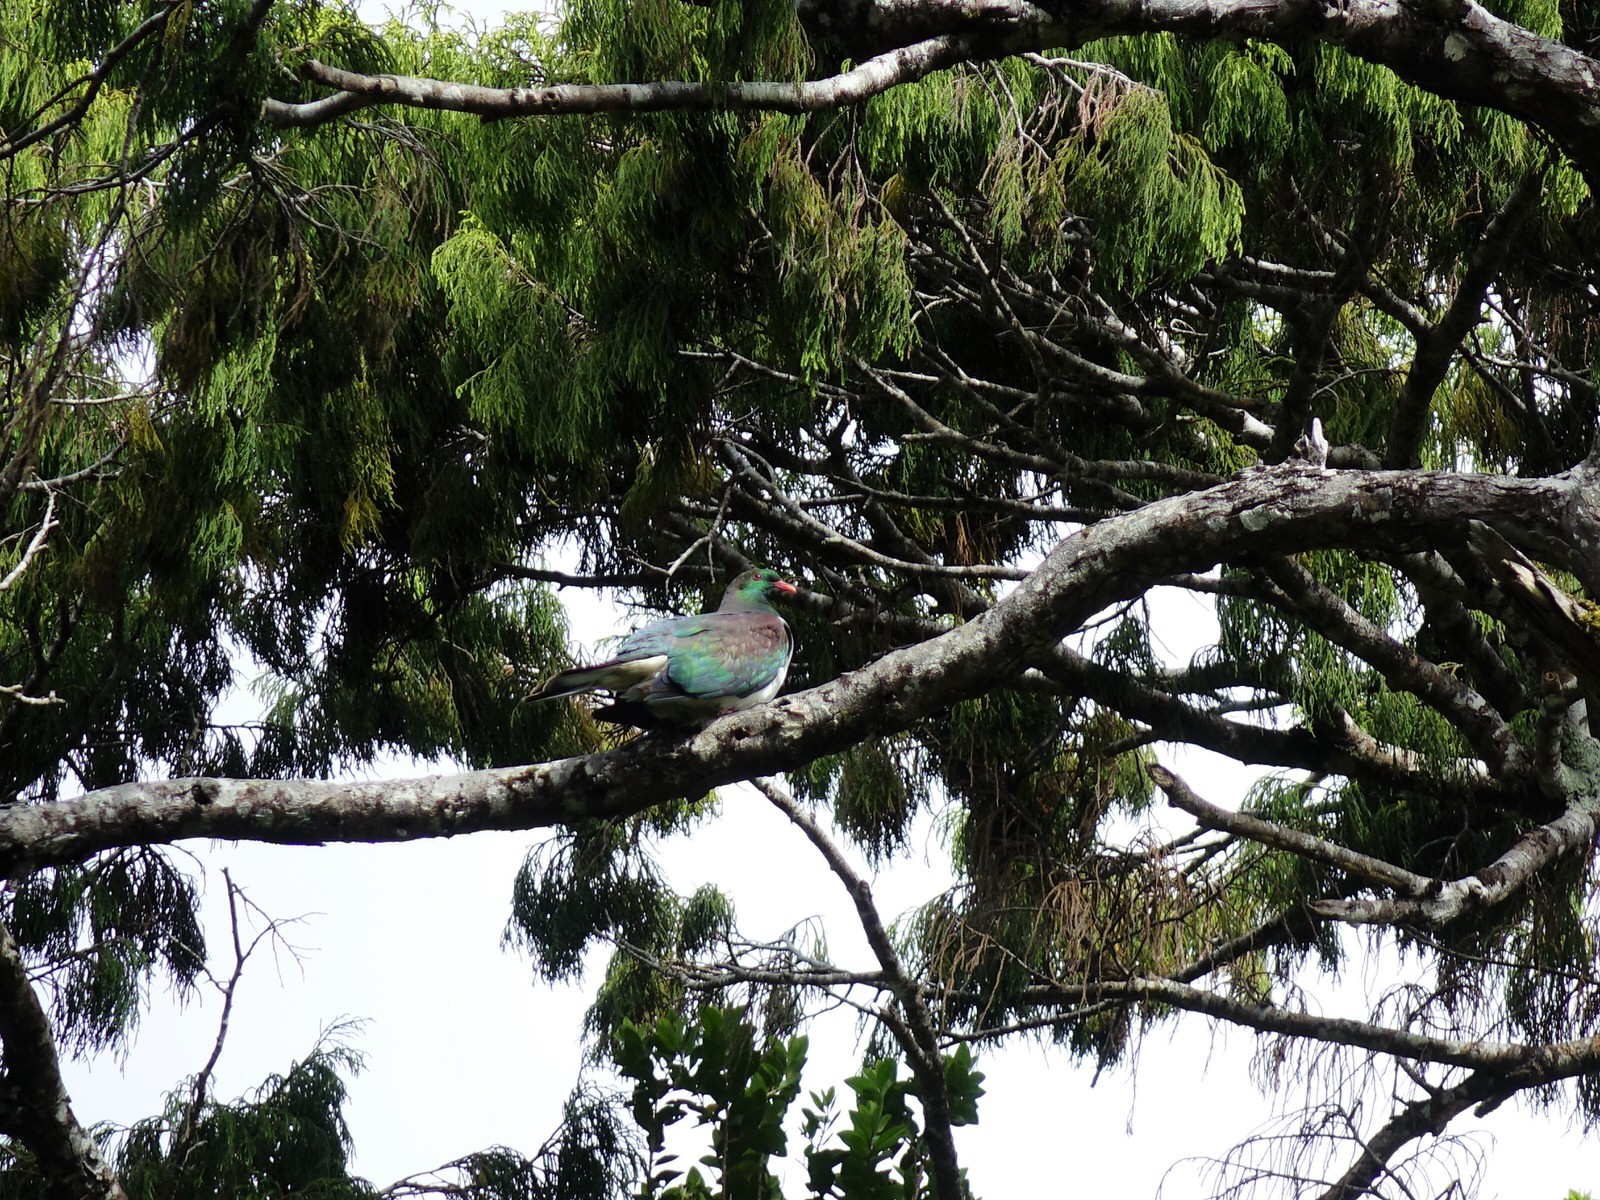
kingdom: Animalia
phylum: Chordata
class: Aves
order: Columbiformes
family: Columbidae
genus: Hemiphaga
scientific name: Hemiphaga novaeseelandiae
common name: New zealand pigeon
